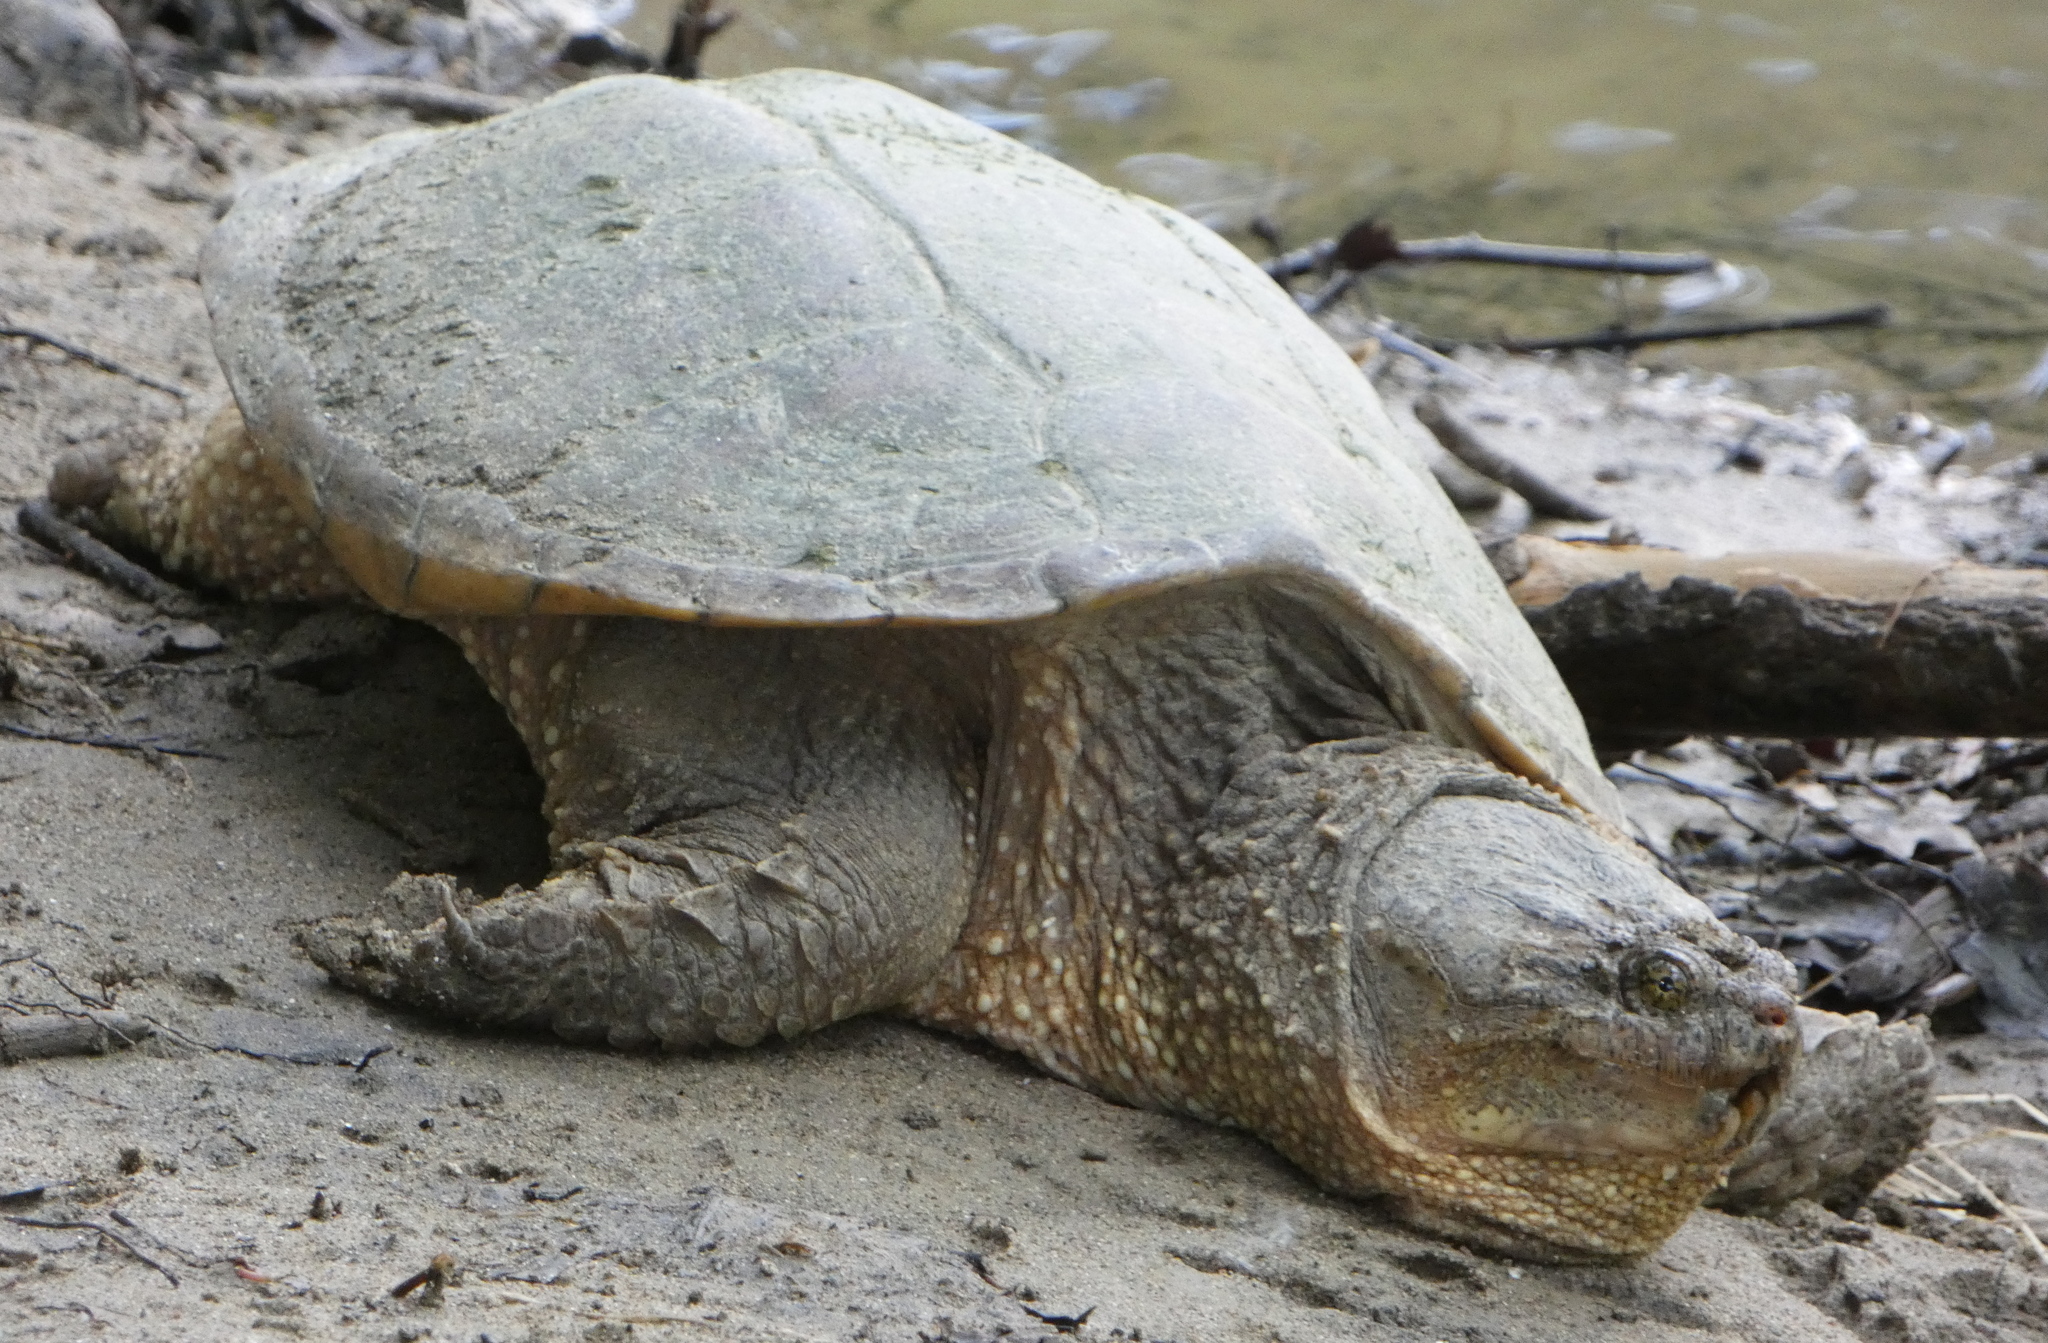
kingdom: Animalia
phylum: Chordata
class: Testudines
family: Chelydridae
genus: Chelydra
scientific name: Chelydra serpentina
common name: Common snapping turtle
